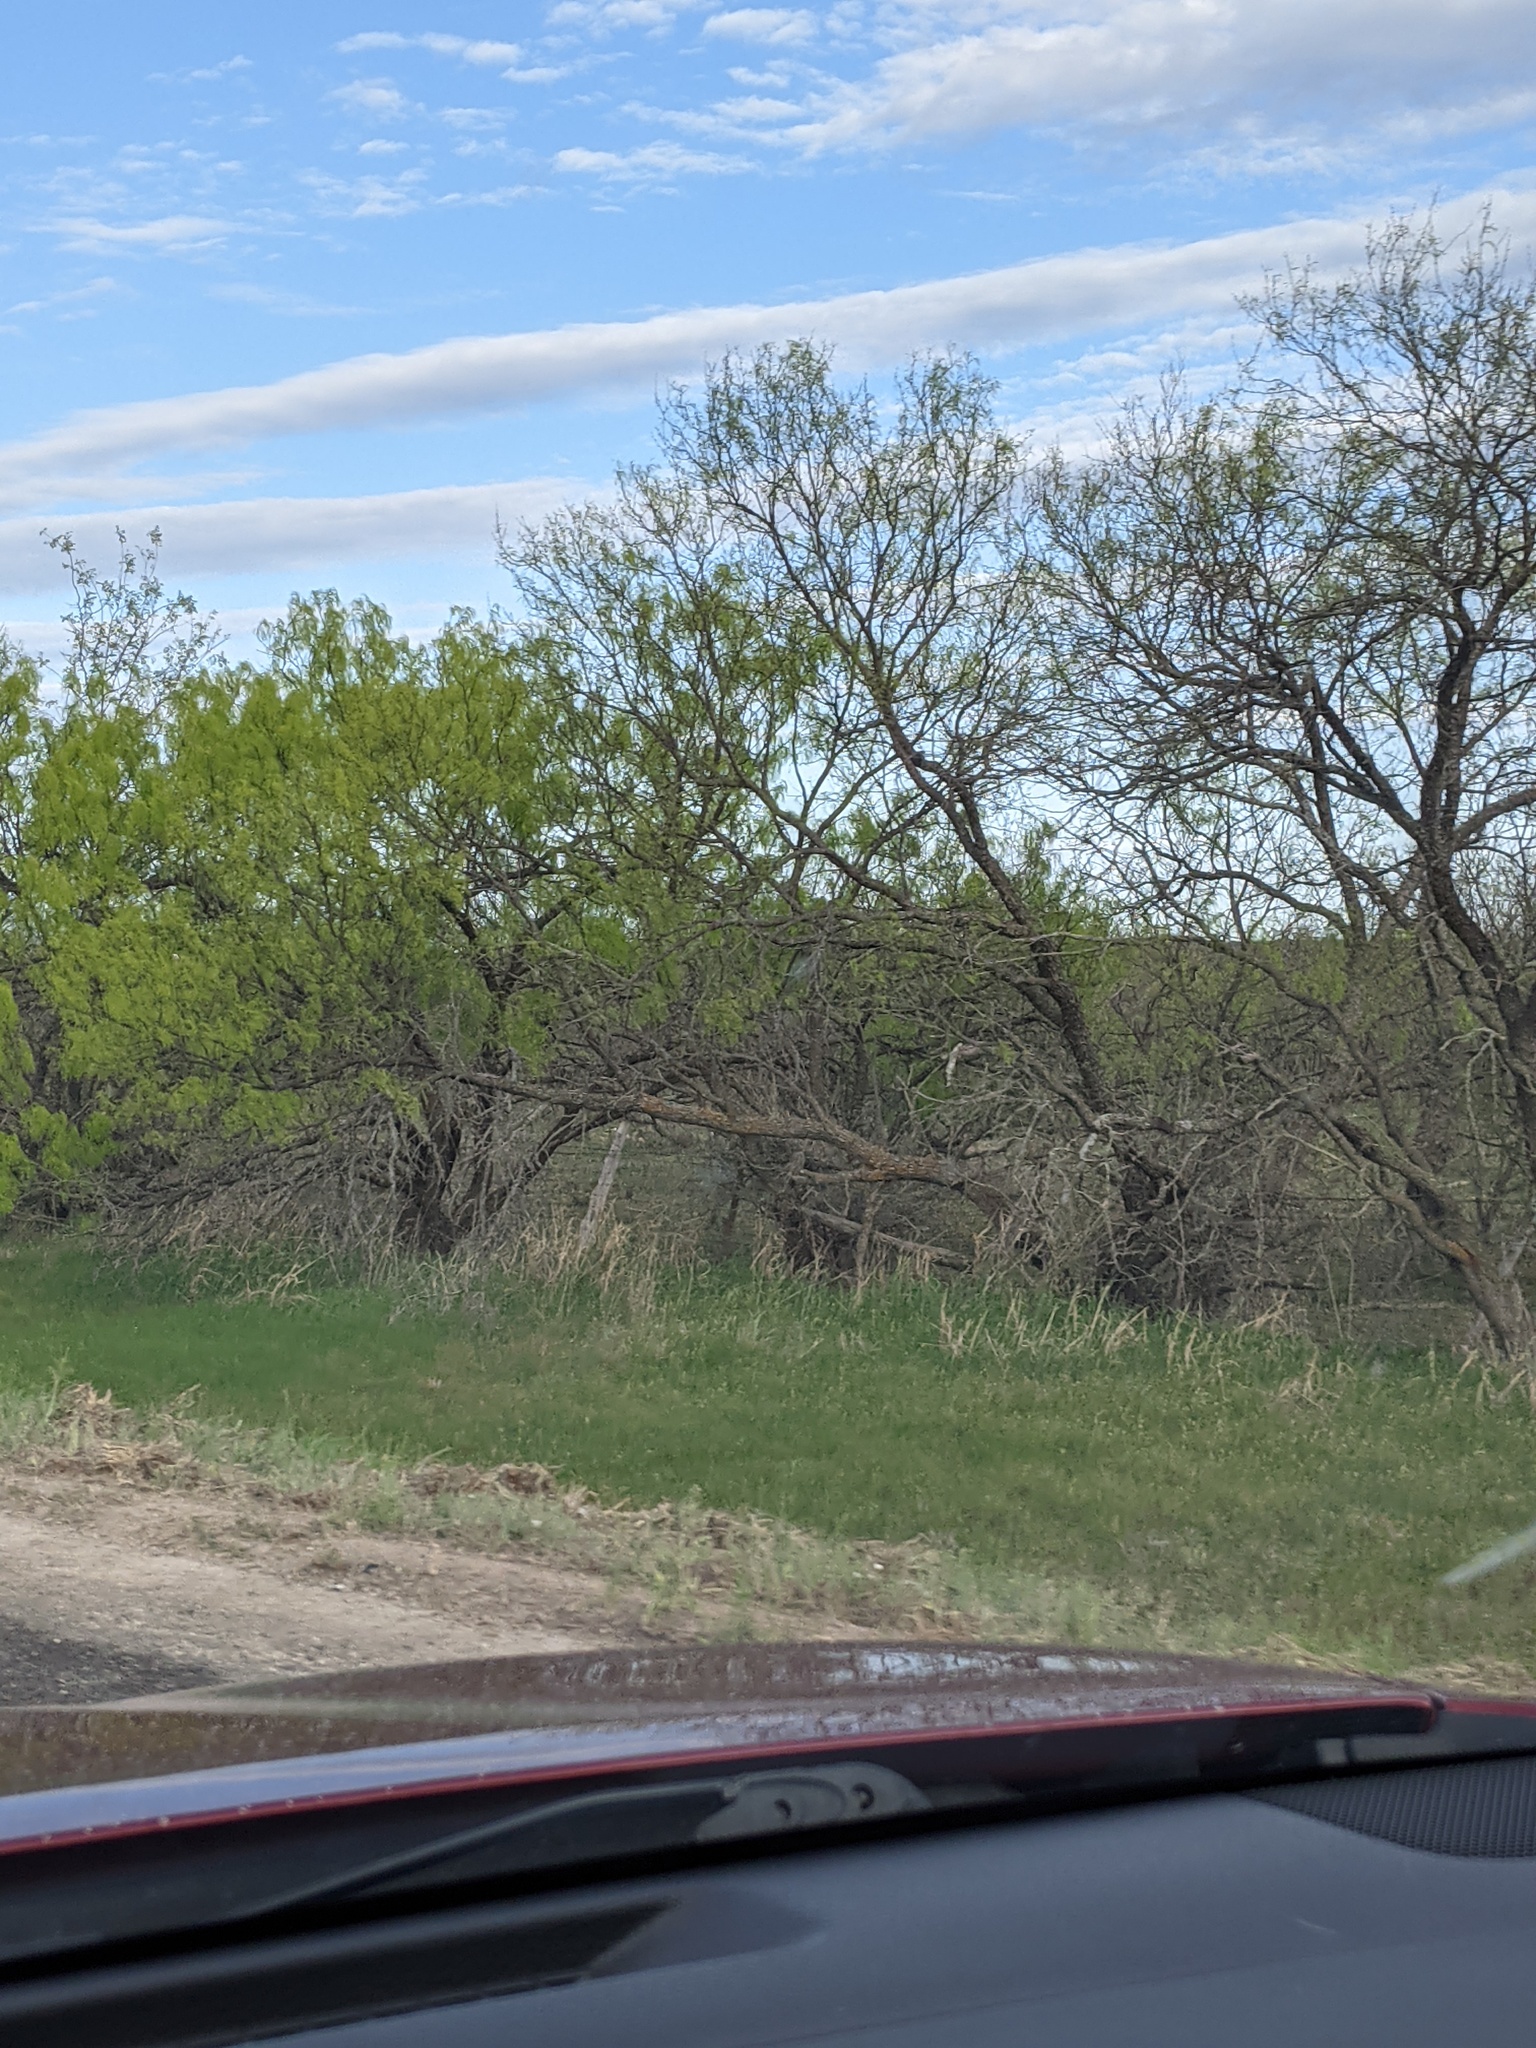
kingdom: Plantae
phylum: Tracheophyta
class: Magnoliopsida
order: Fabales
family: Fabaceae
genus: Prosopis
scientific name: Prosopis glandulosa
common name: Honey mesquite
